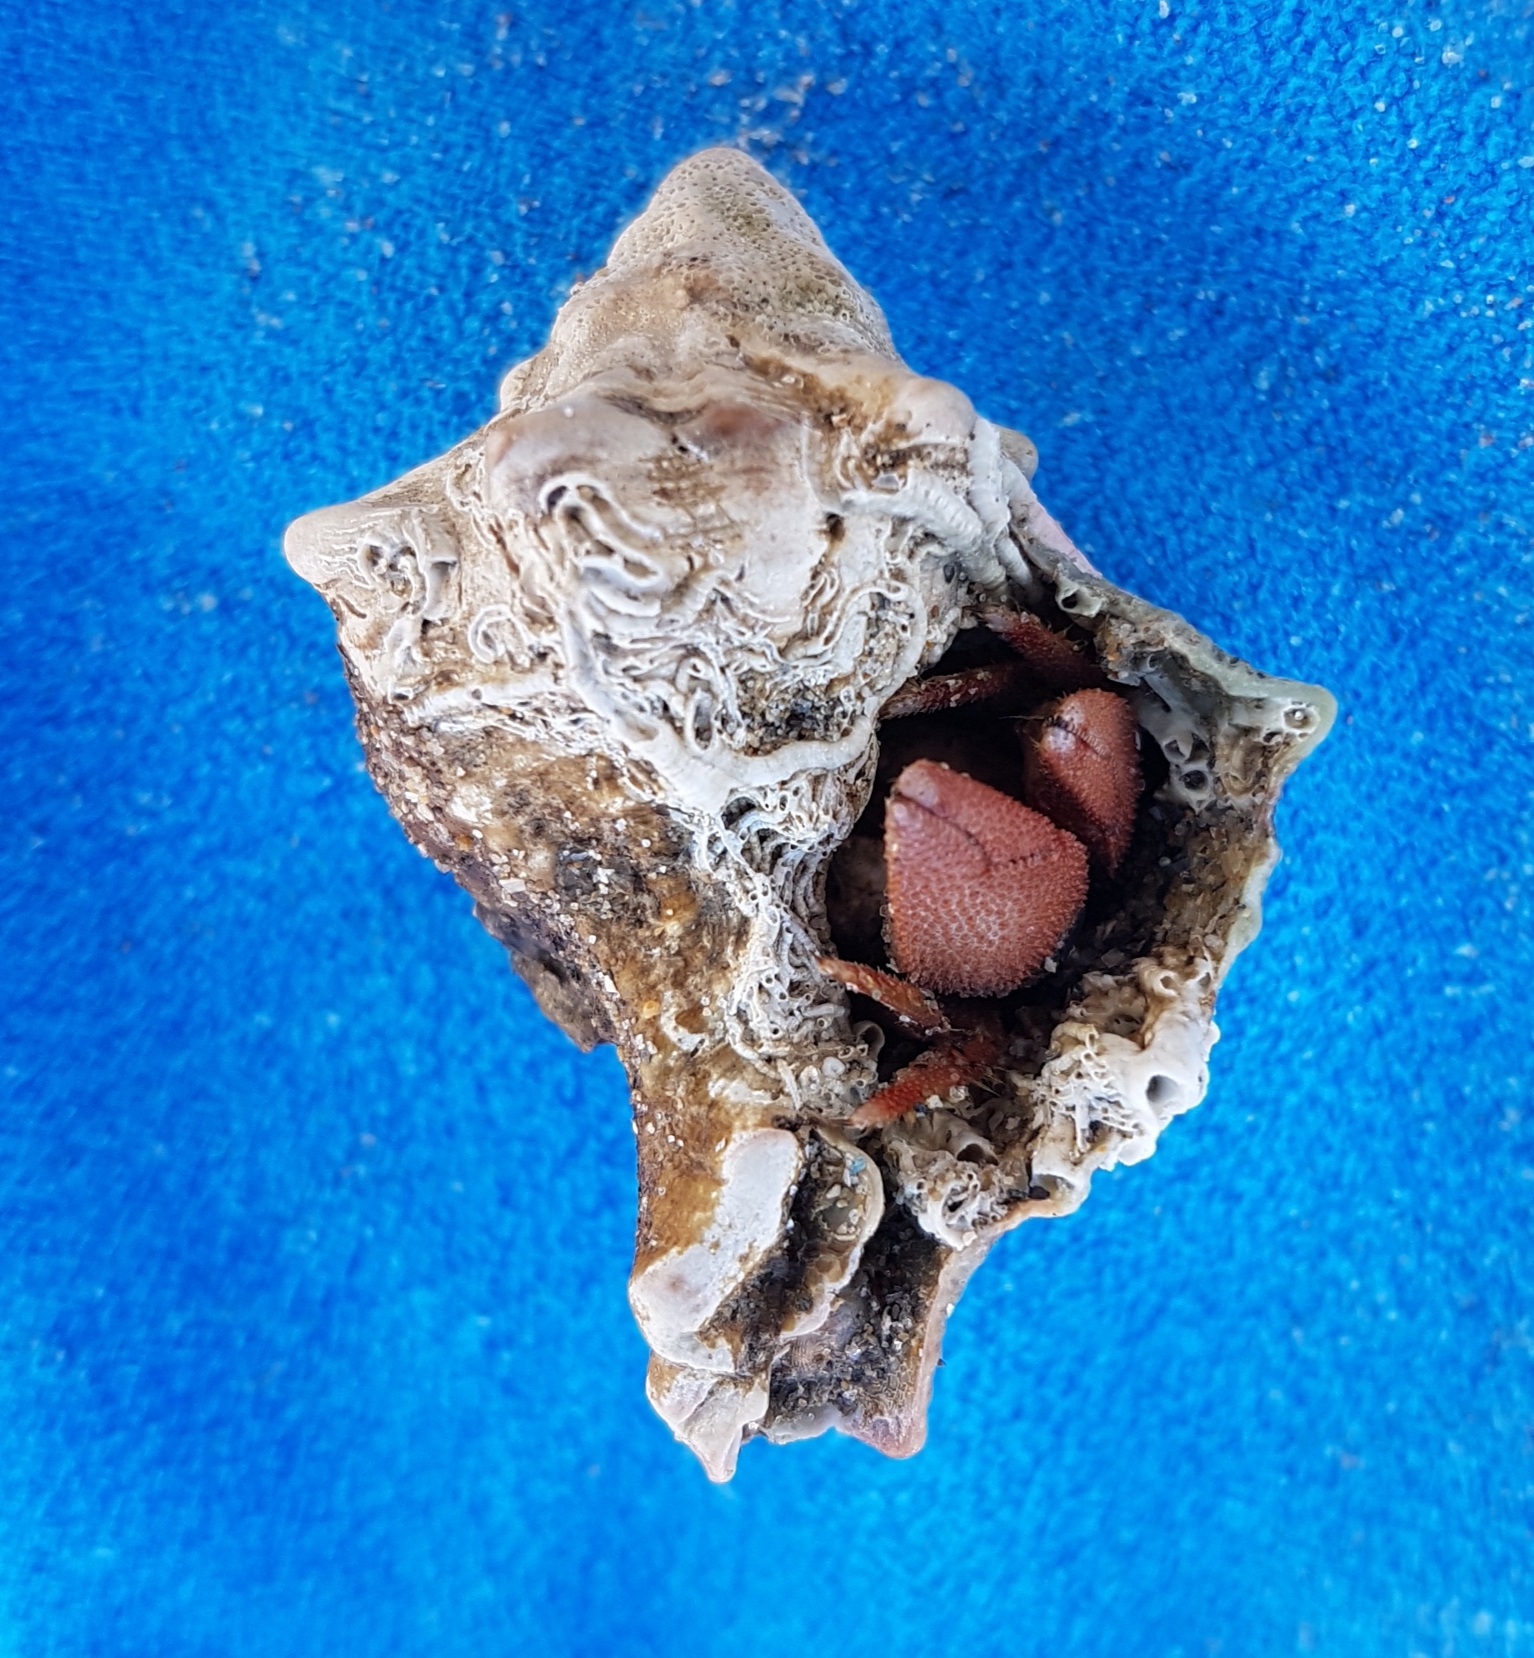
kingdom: Animalia
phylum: Arthropoda
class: Malacostraca
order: Decapoda
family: Diogenidae
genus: Paguristes
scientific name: Paguristes eremita
